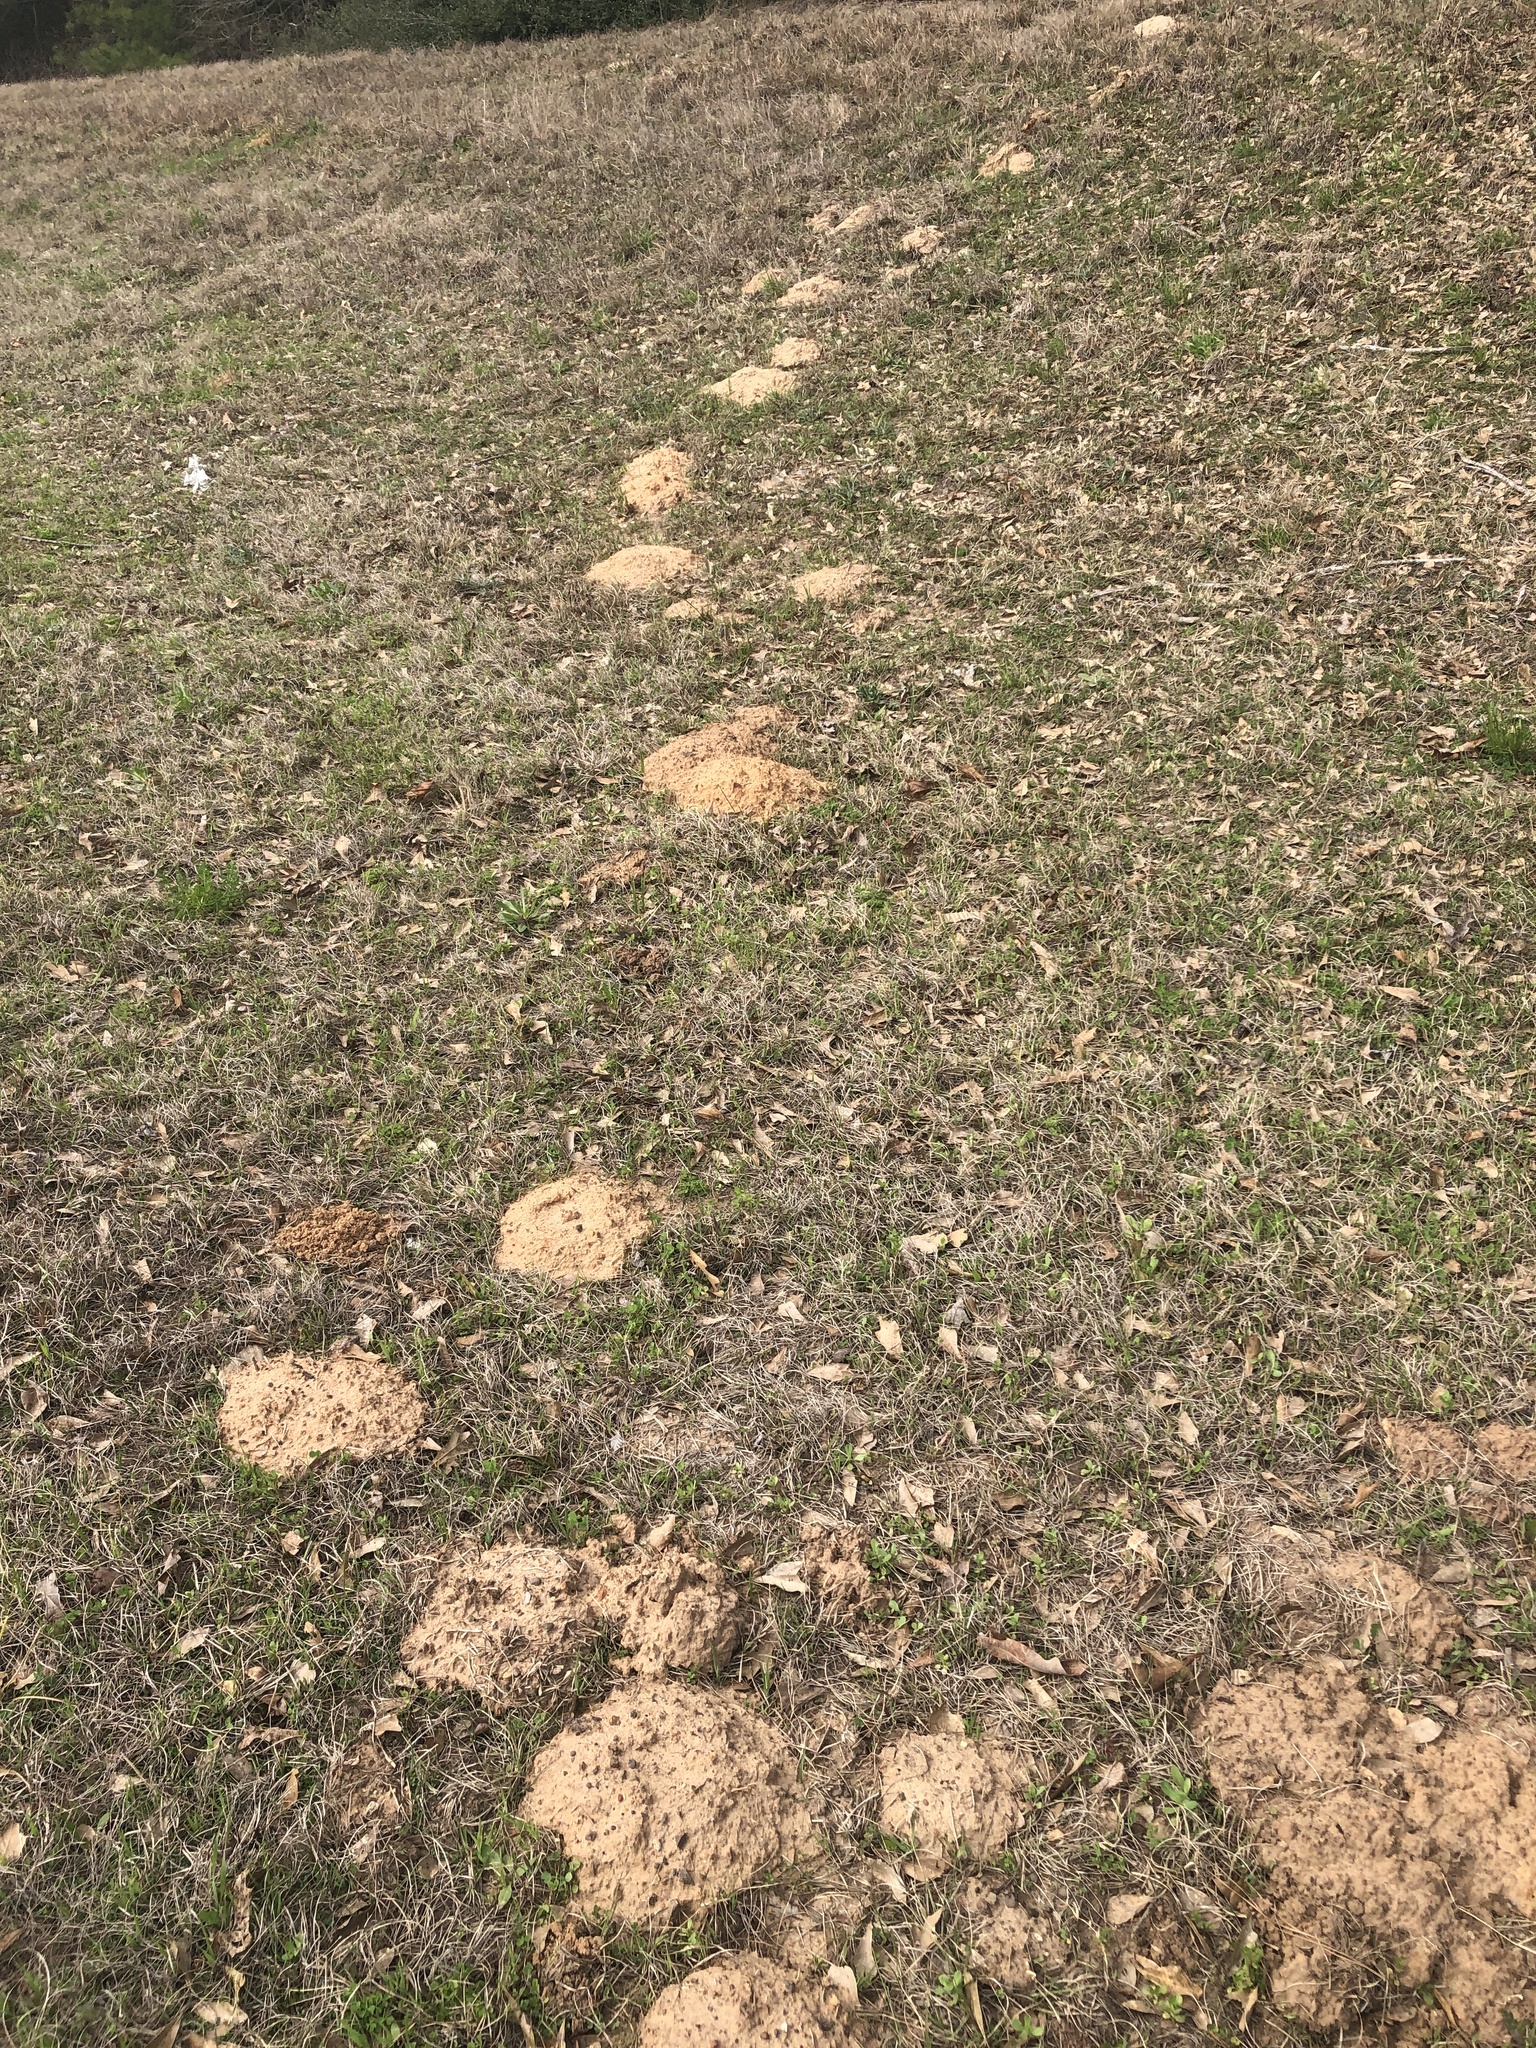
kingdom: Animalia
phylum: Chordata
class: Mammalia
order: Rodentia
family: Geomyidae
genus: Geomys
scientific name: Geomys breviceps
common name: Baird's pocket gopher
